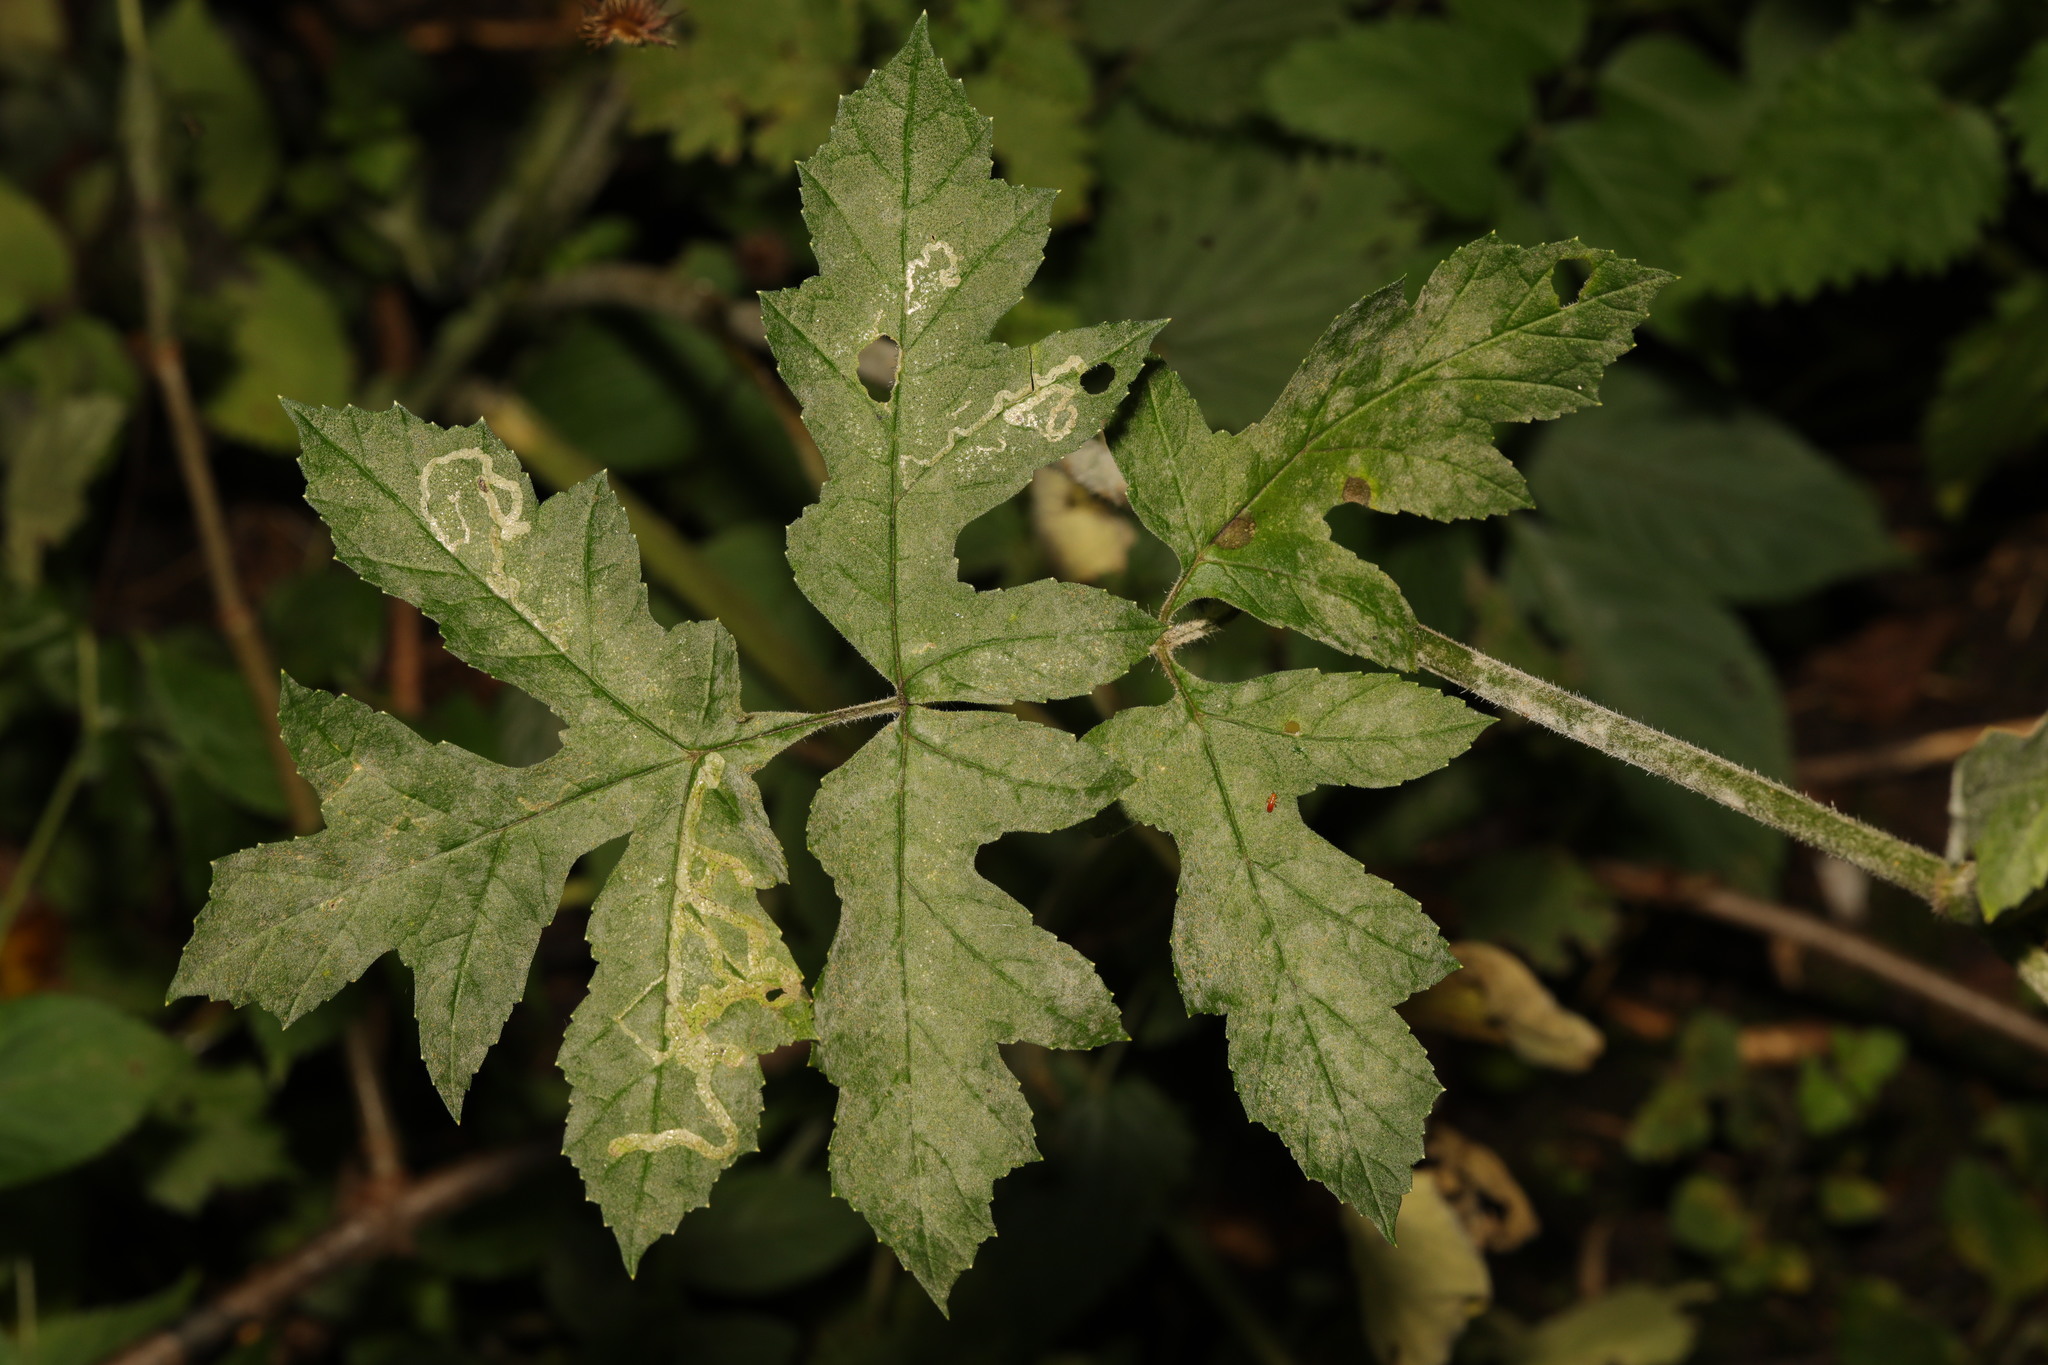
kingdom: Plantae
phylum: Tracheophyta
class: Magnoliopsida
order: Apiales
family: Apiaceae
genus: Heracleum
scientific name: Heracleum sphondylium
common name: Hogweed
